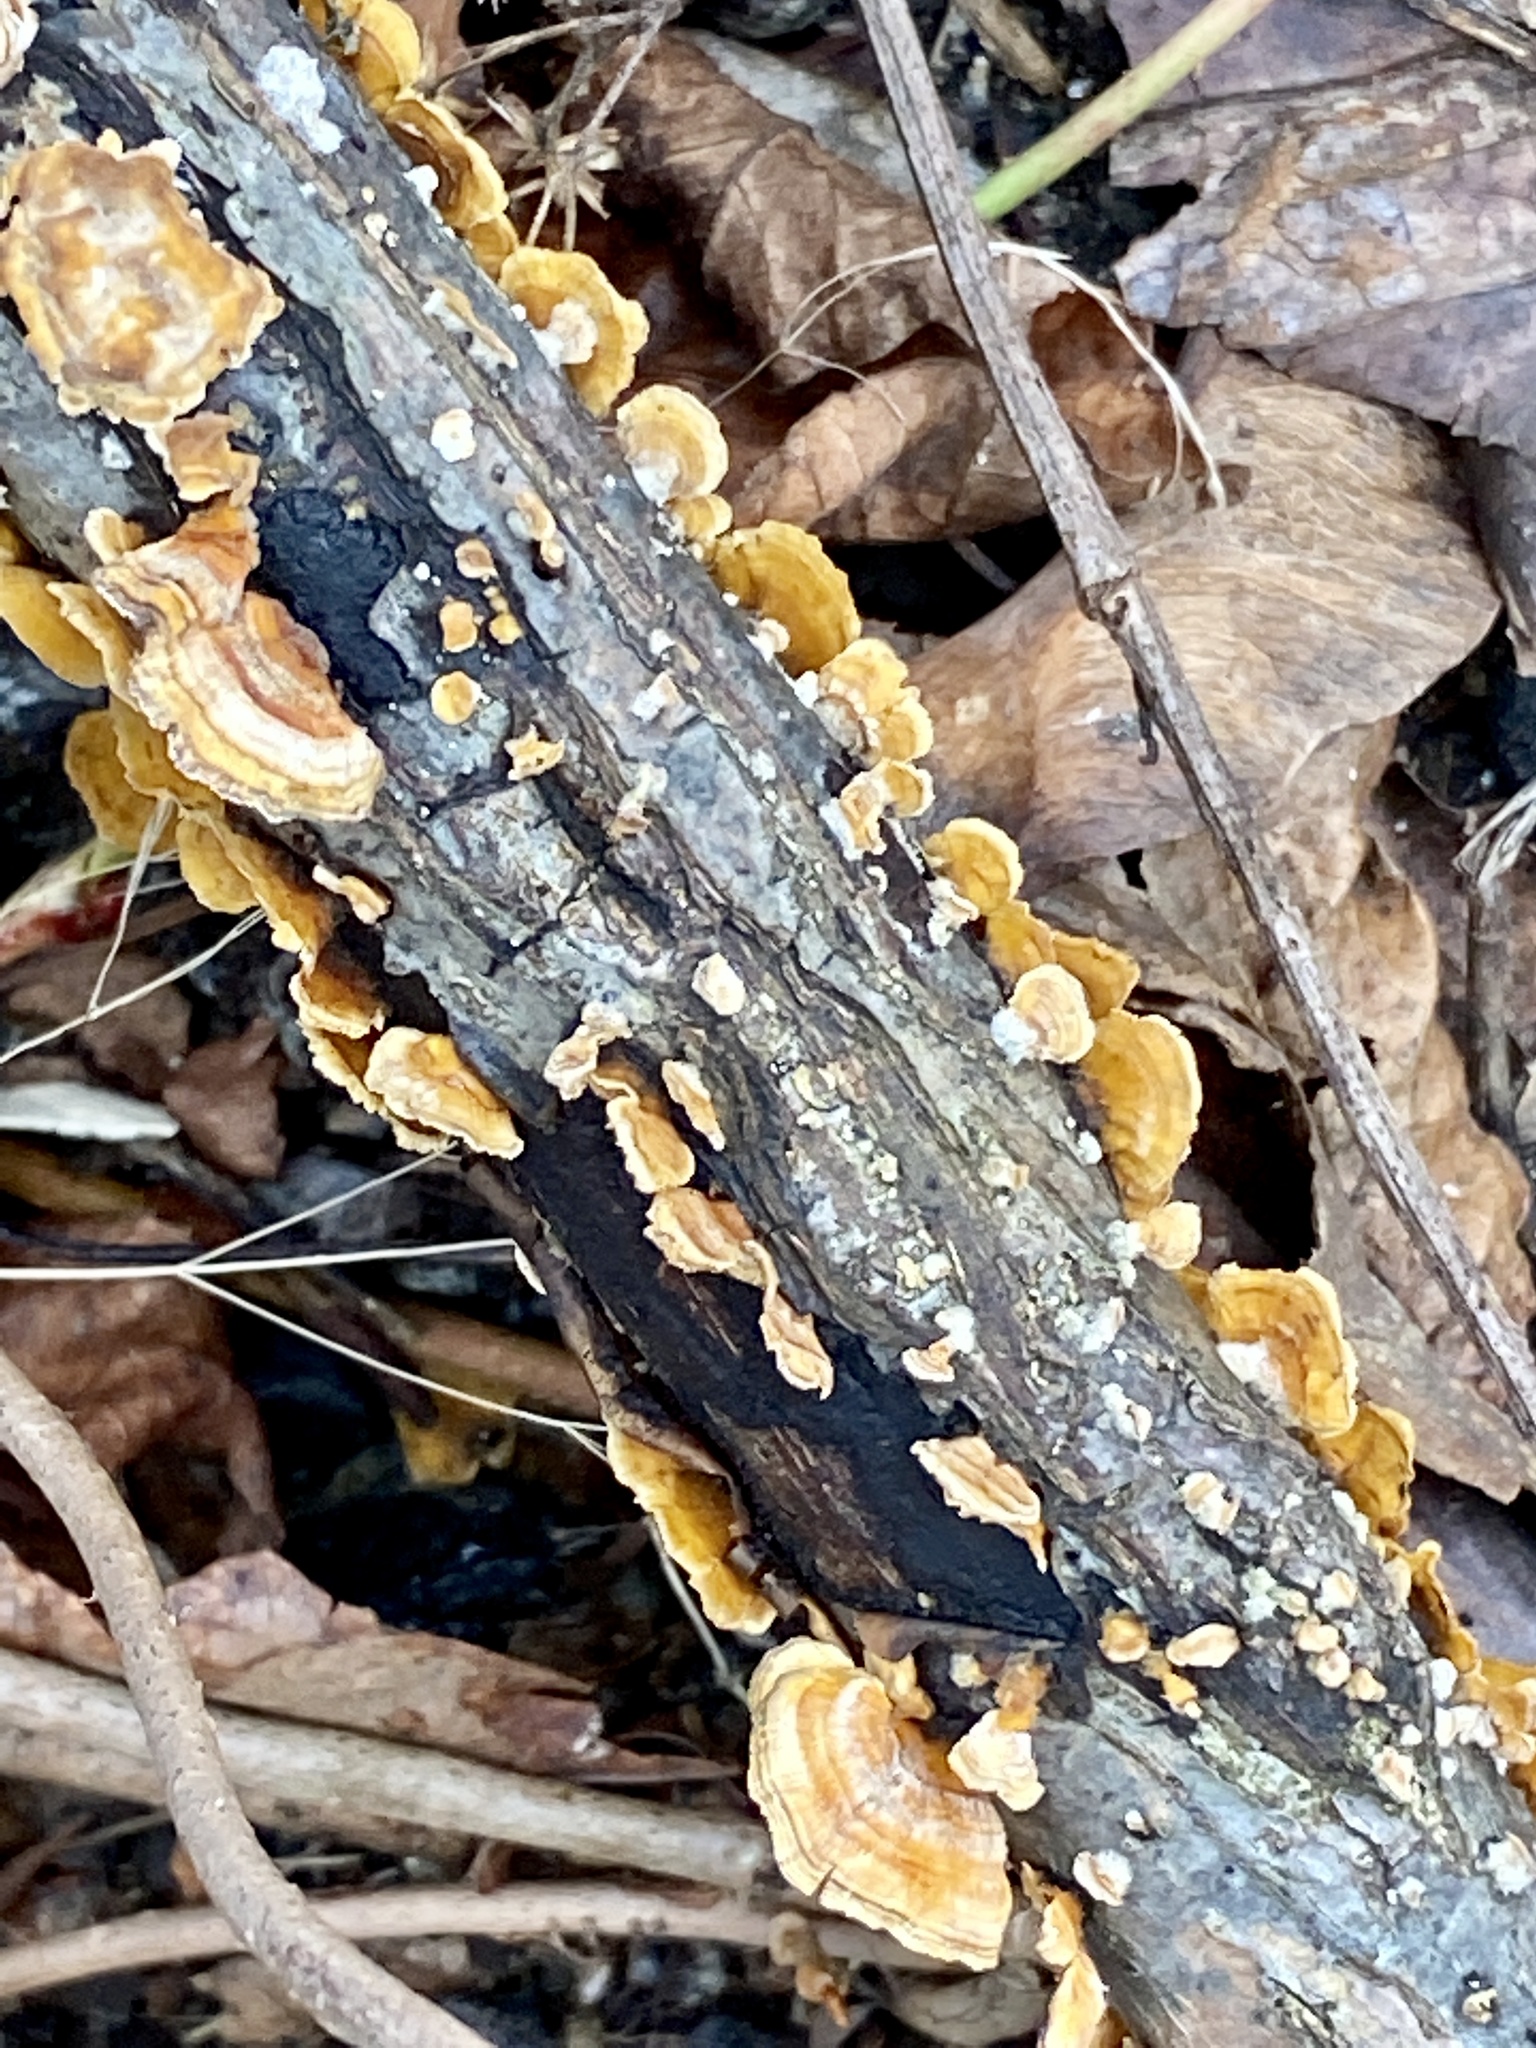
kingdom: Fungi
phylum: Basidiomycota
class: Agaricomycetes
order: Russulales
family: Stereaceae
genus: Stereum
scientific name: Stereum complicatum
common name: Crowded parchment
